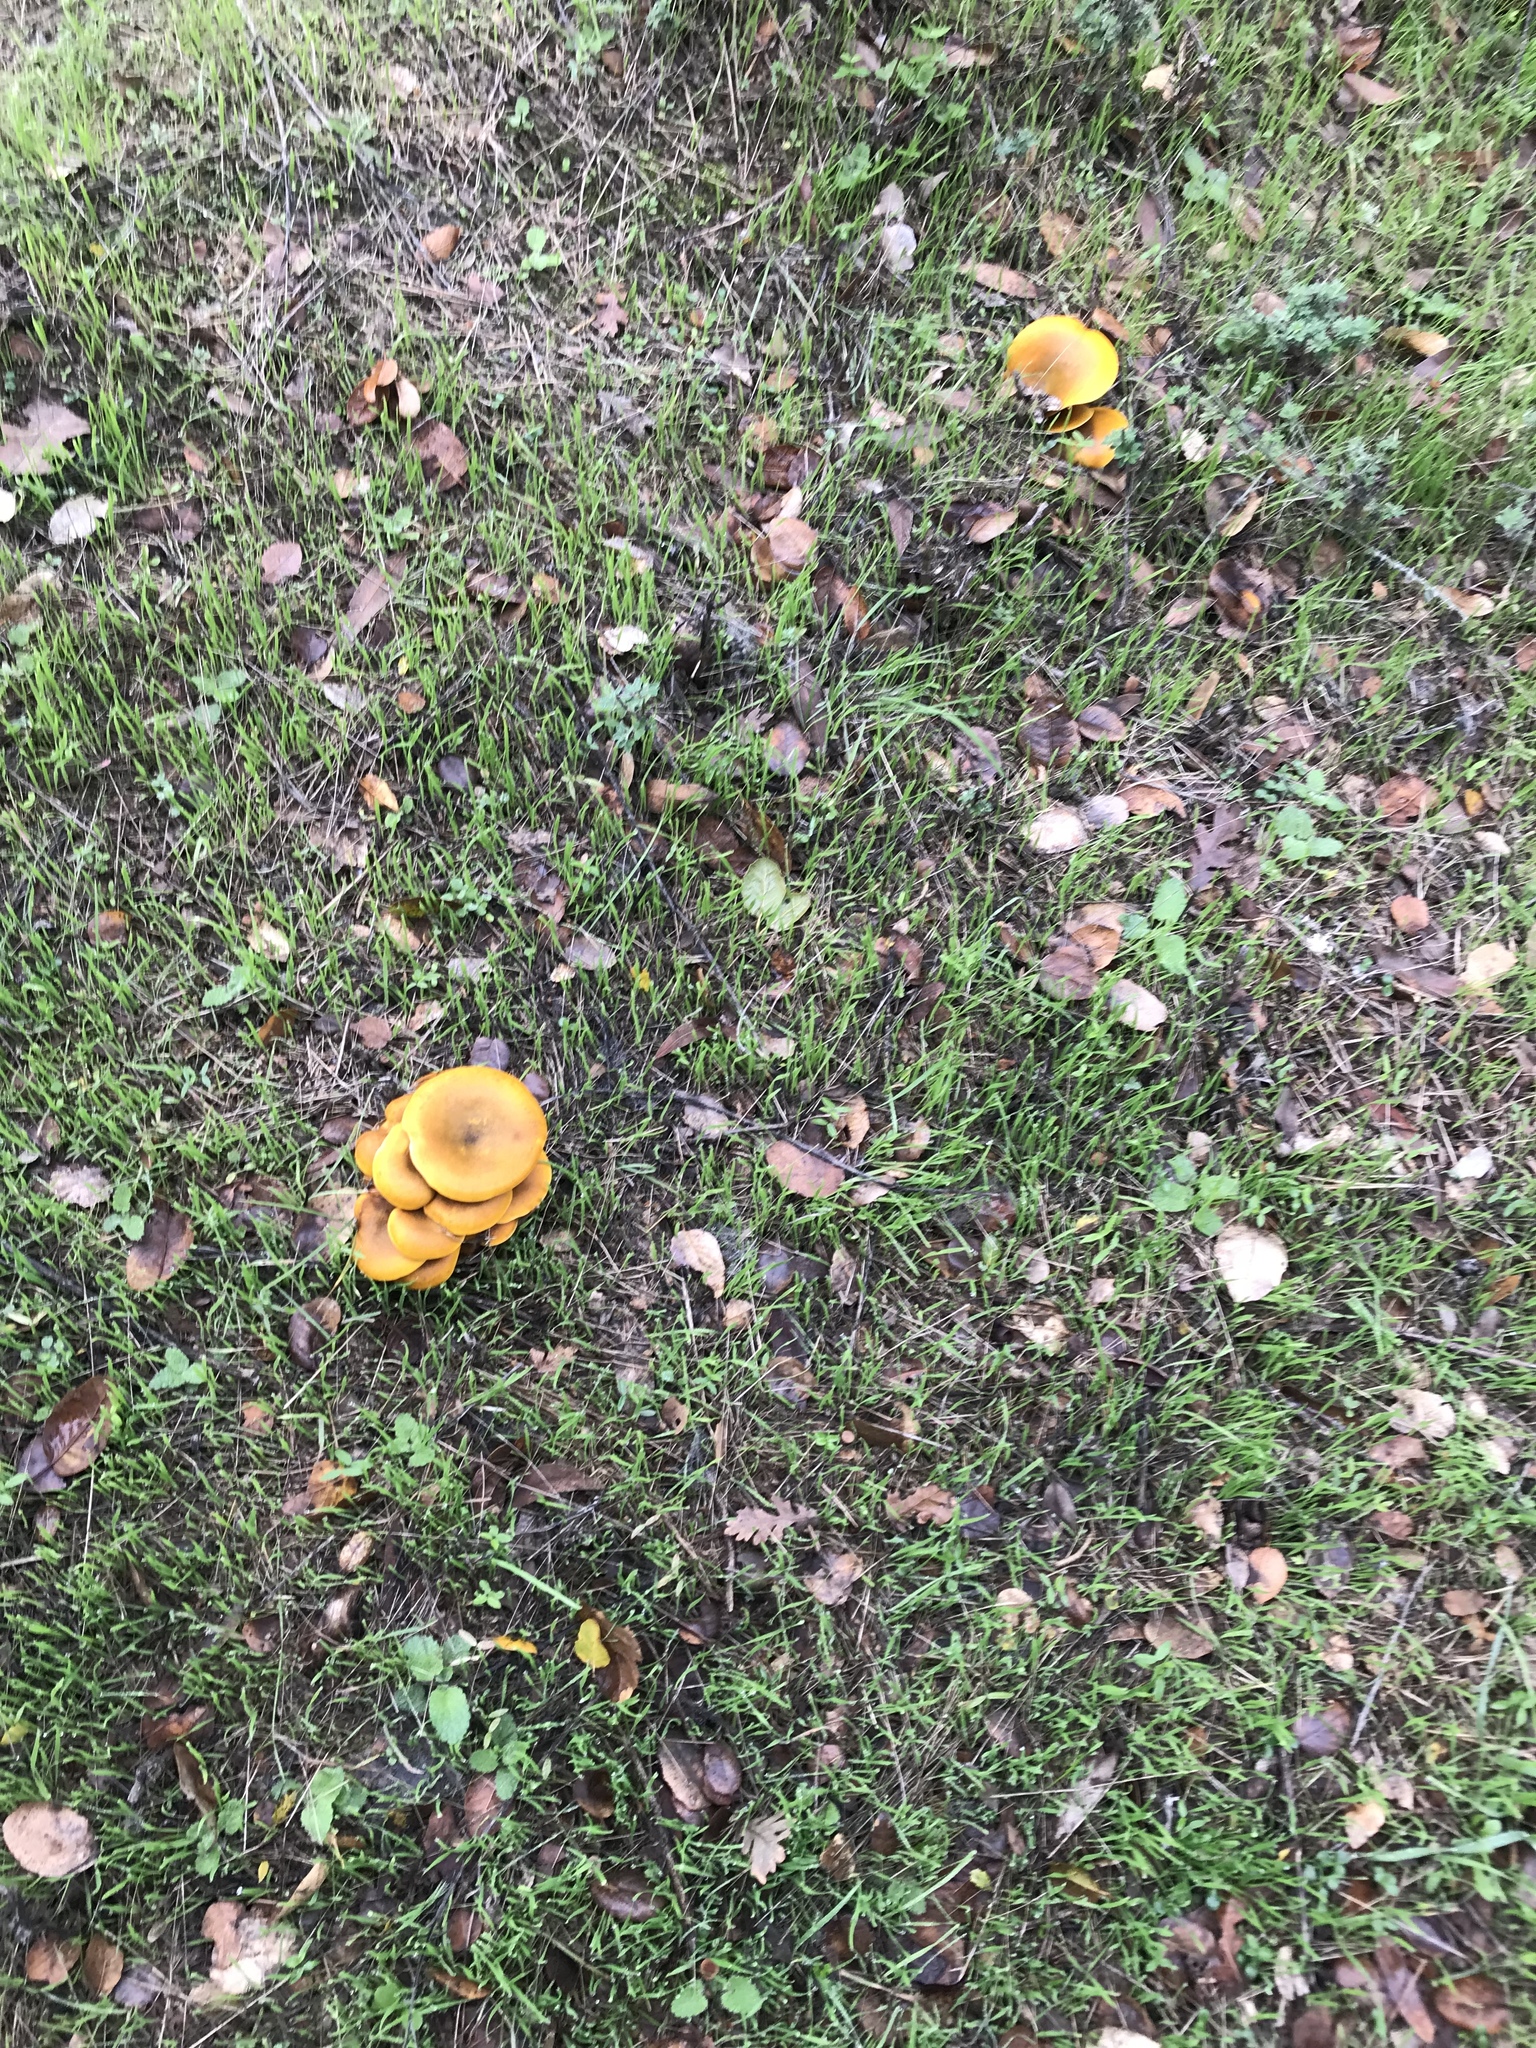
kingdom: Fungi
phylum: Basidiomycota
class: Agaricomycetes
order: Agaricales
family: Omphalotaceae
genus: Omphalotus
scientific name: Omphalotus olivascens
